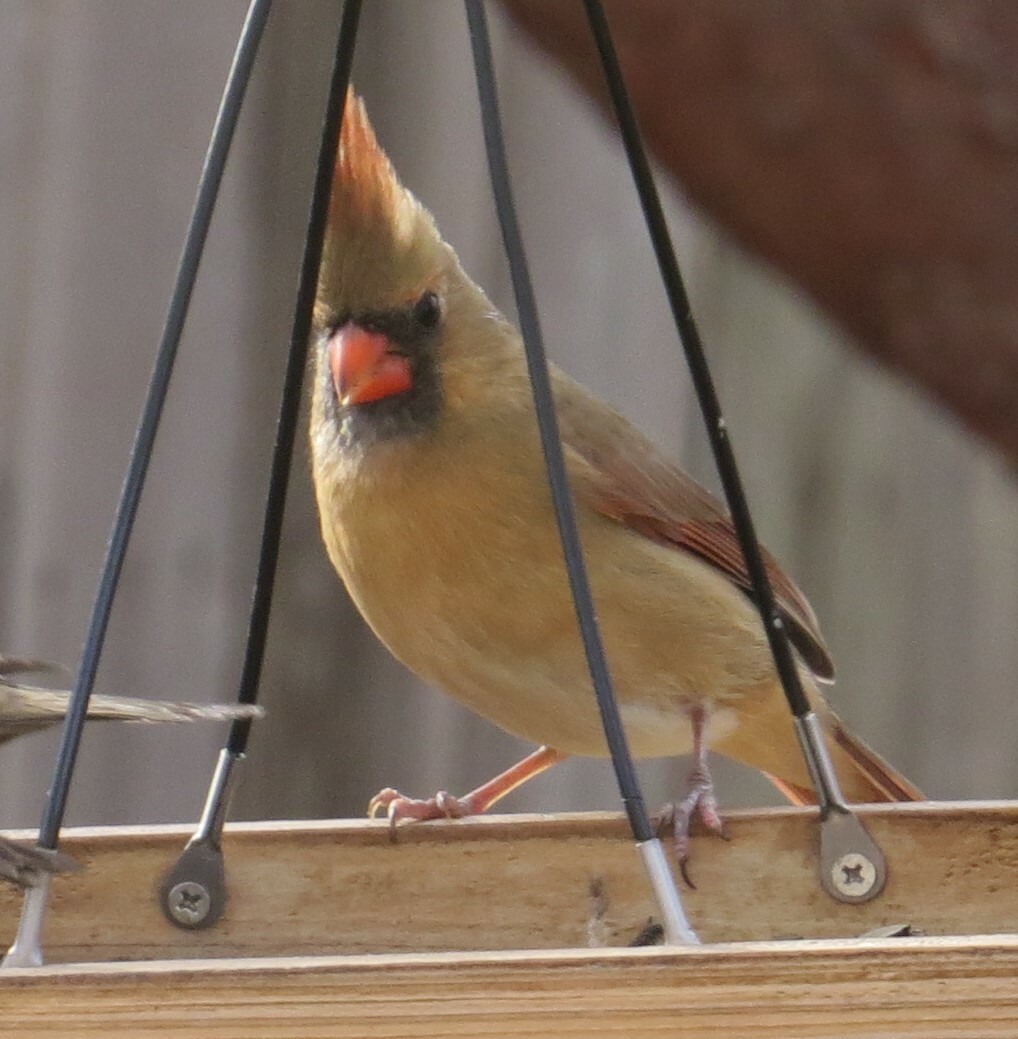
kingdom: Animalia
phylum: Chordata
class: Aves
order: Passeriformes
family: Cardinalidae
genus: Cardinalis
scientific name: Cardinalis cardinalis
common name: Northern cardinal
